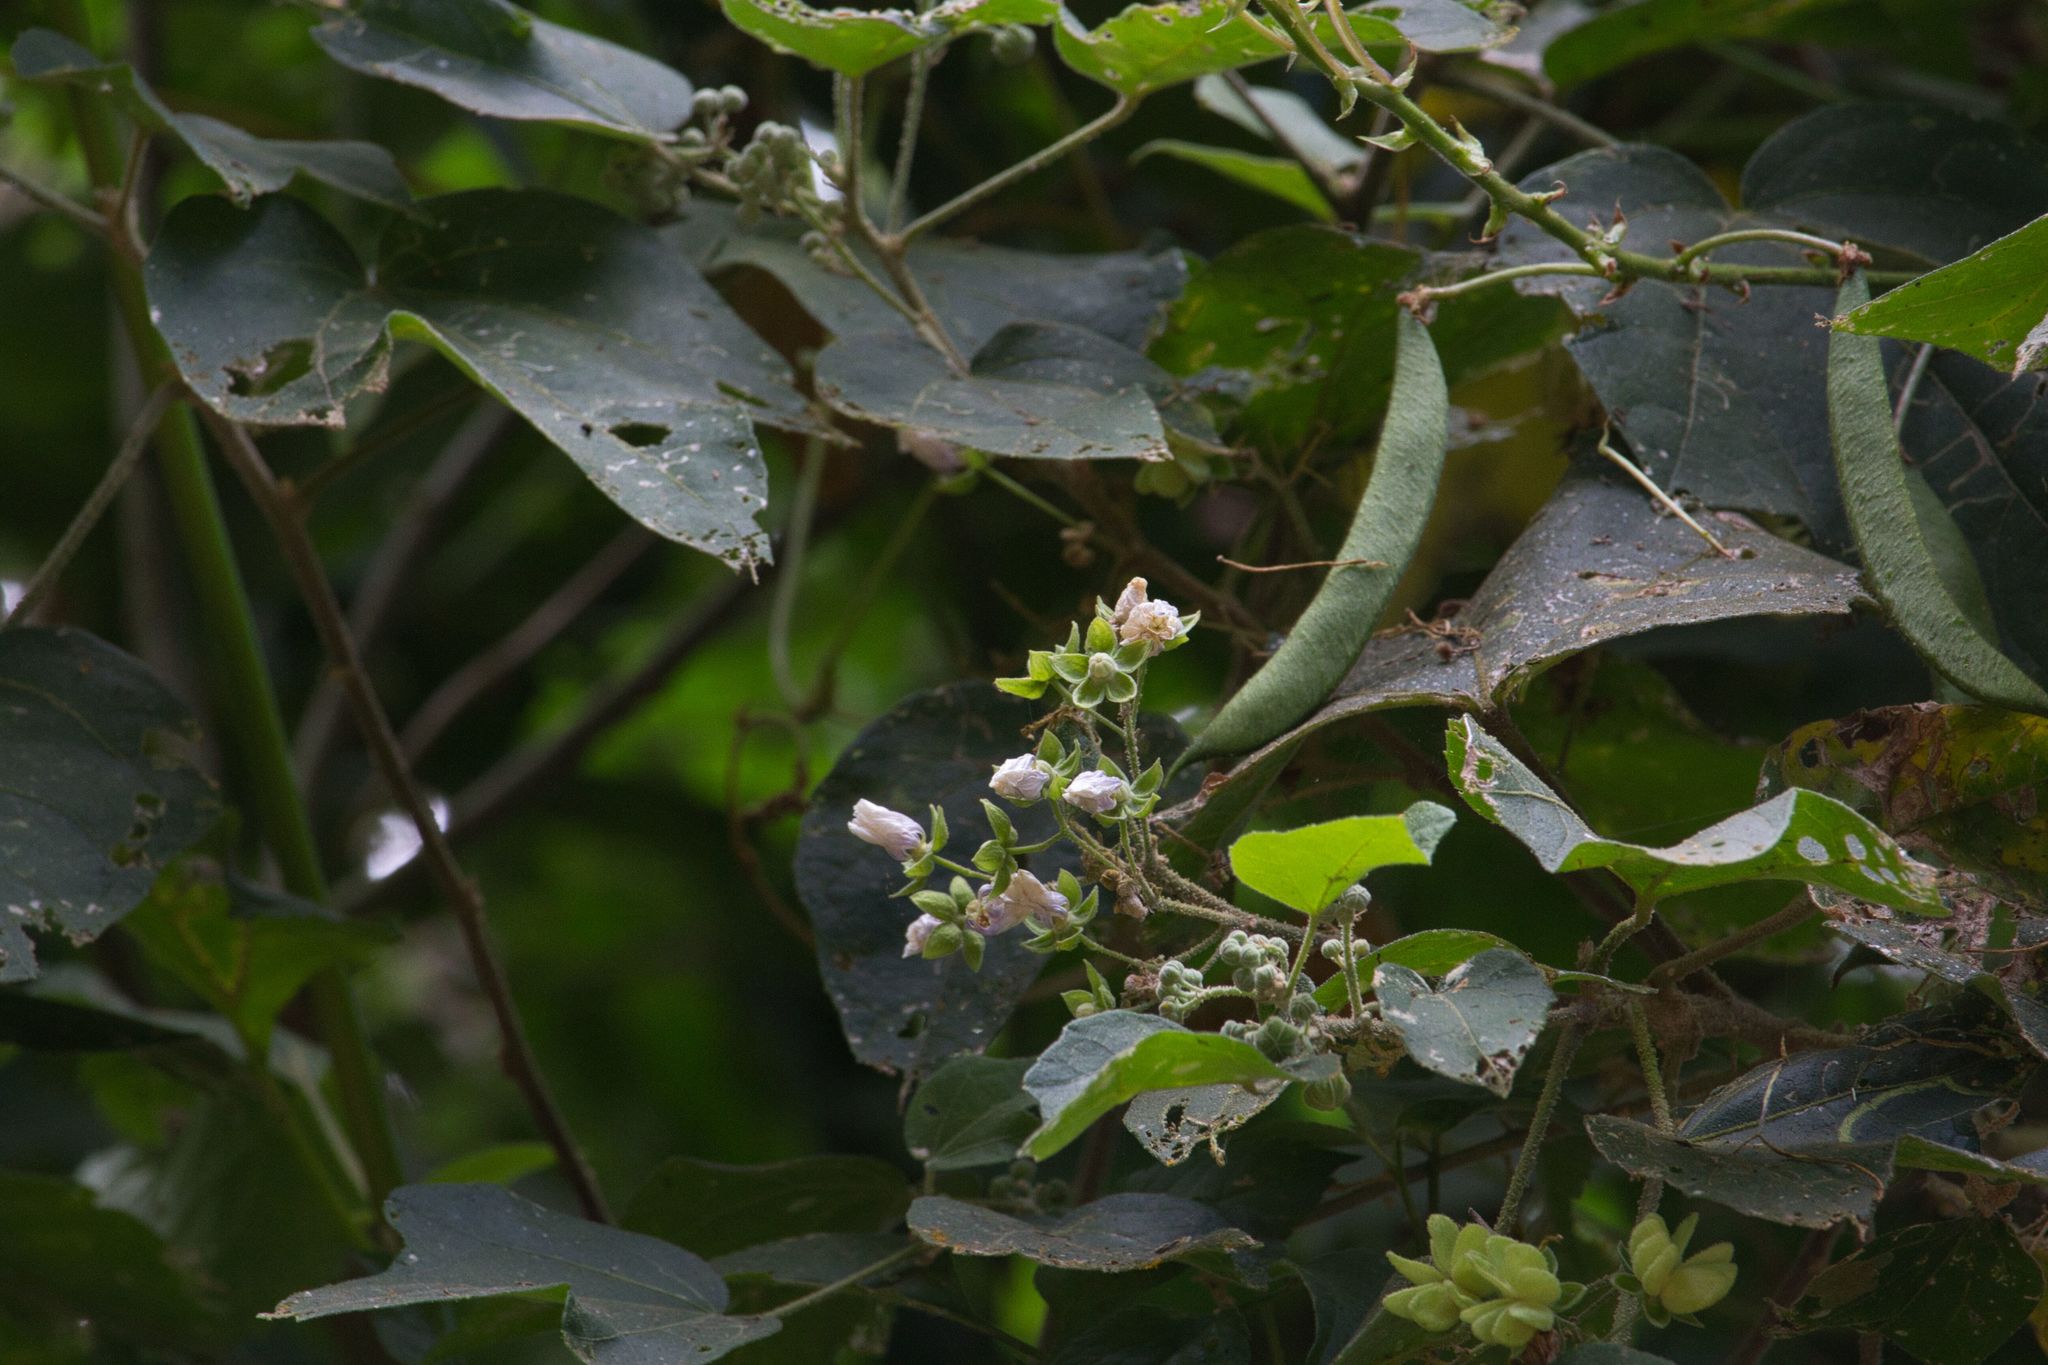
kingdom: Plantae
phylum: Tracheophyta
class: Magnoliopsida
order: Malvales
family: Malvaceae
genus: Robinsonella
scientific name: Robinsonella lindeniana
